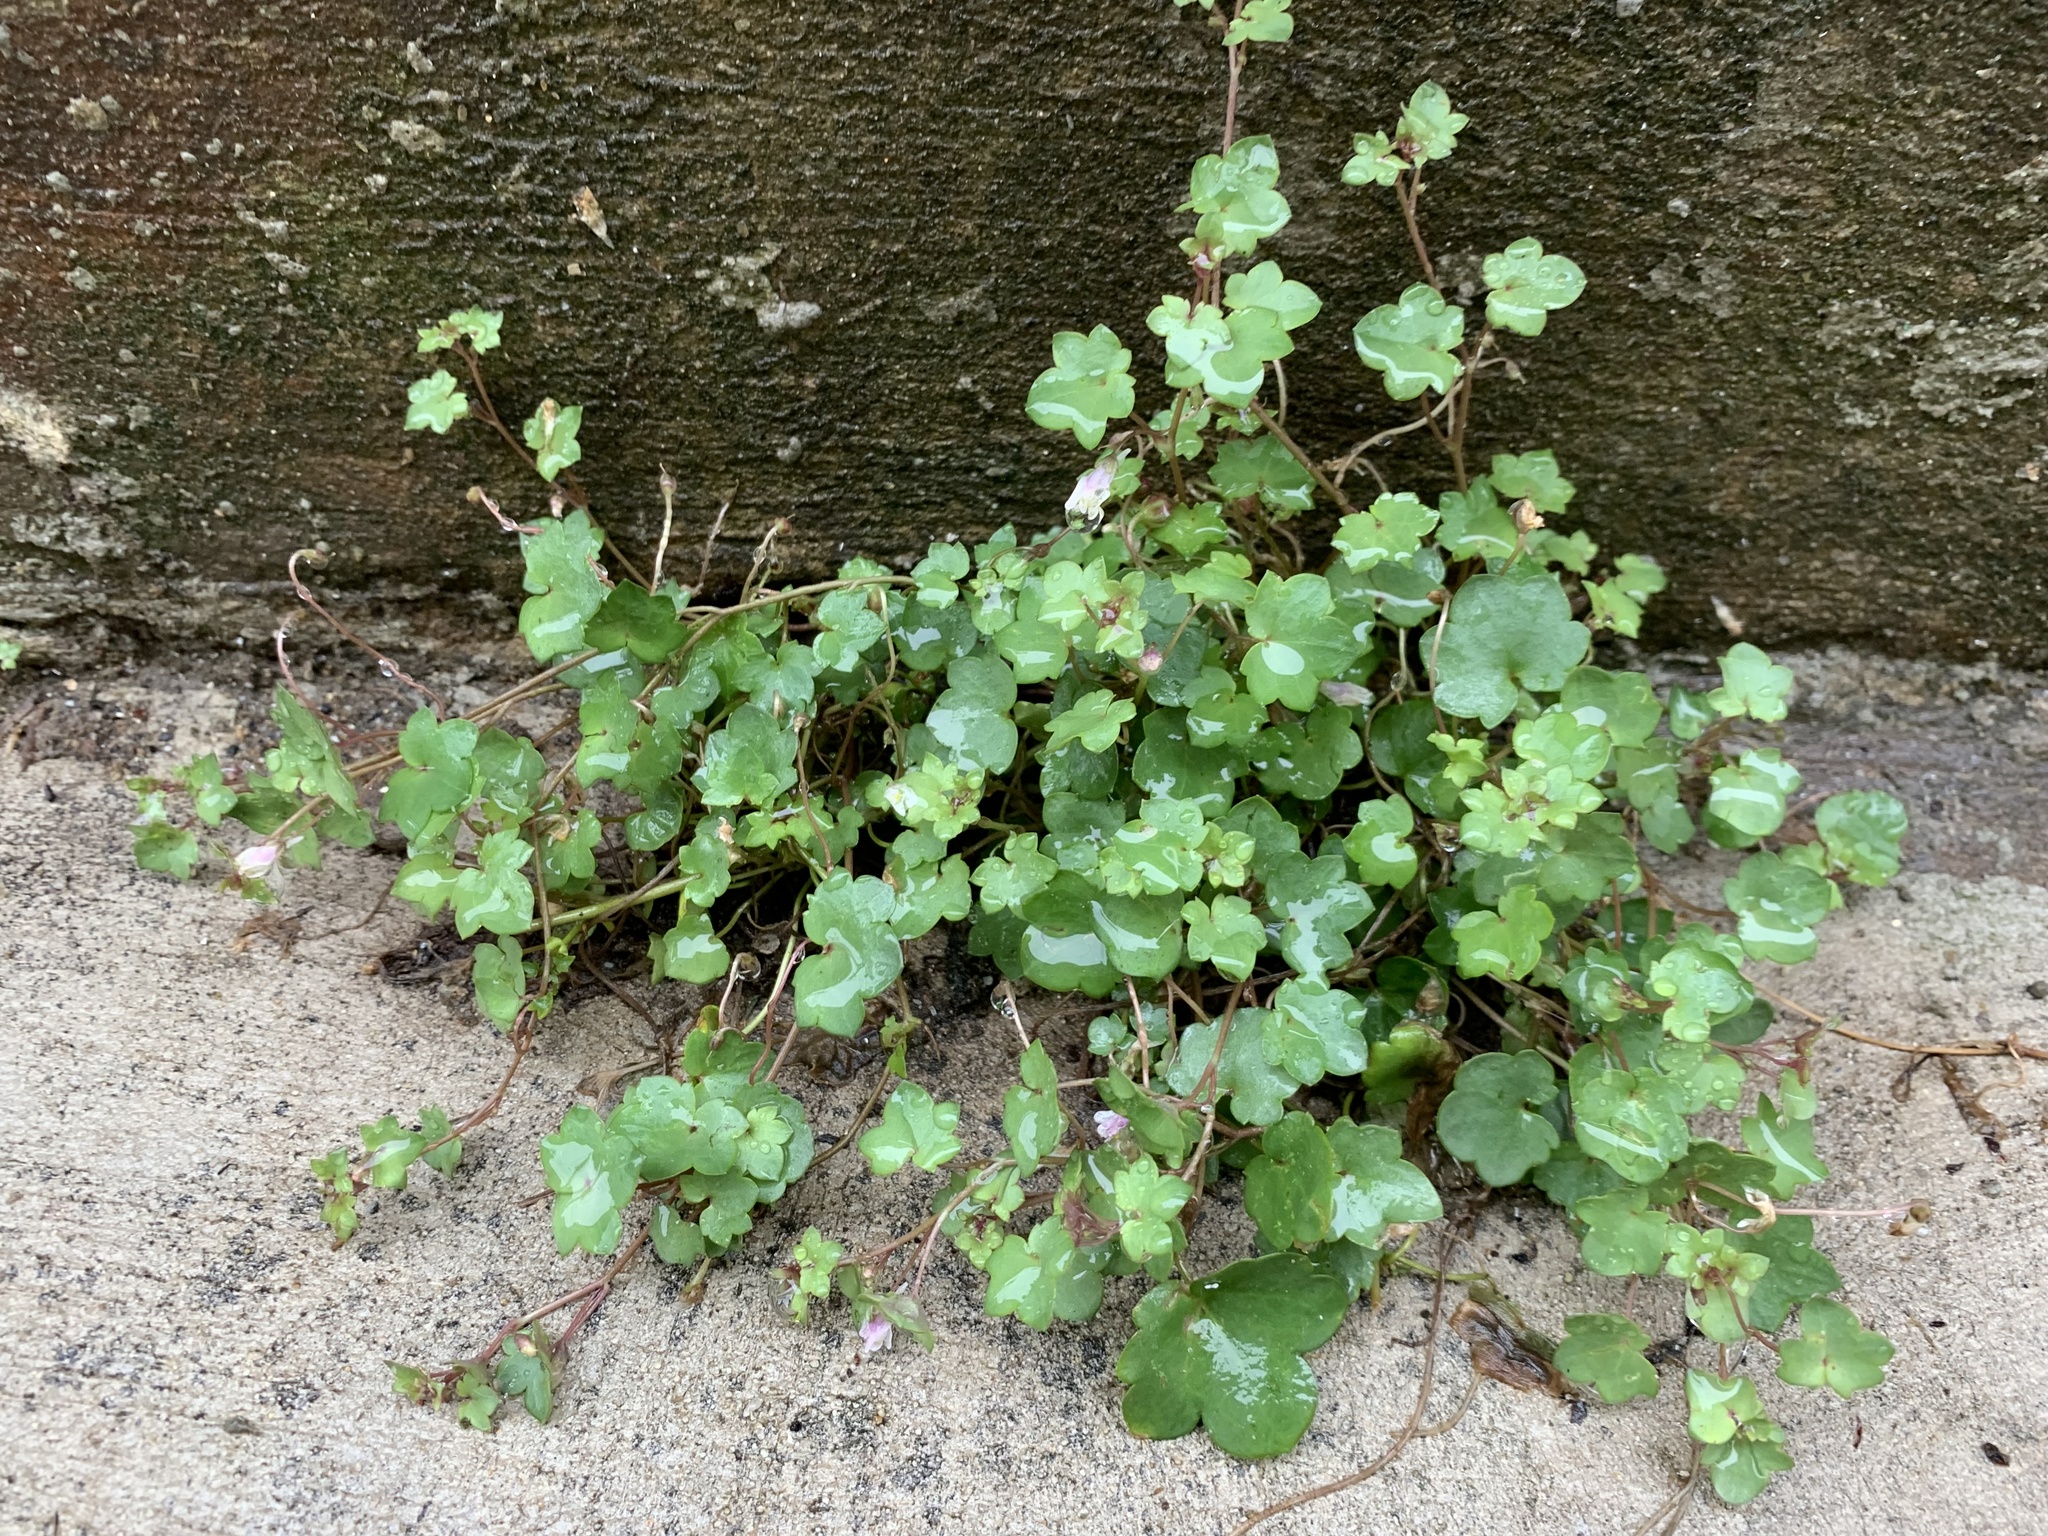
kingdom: Plantae
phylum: Tracheophyta
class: Magnoliopsida
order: Lamiales
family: Plantaginaceae
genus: Cymbalaria
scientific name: Cymbalaria muralis
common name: Ivy-leaved toadflax
